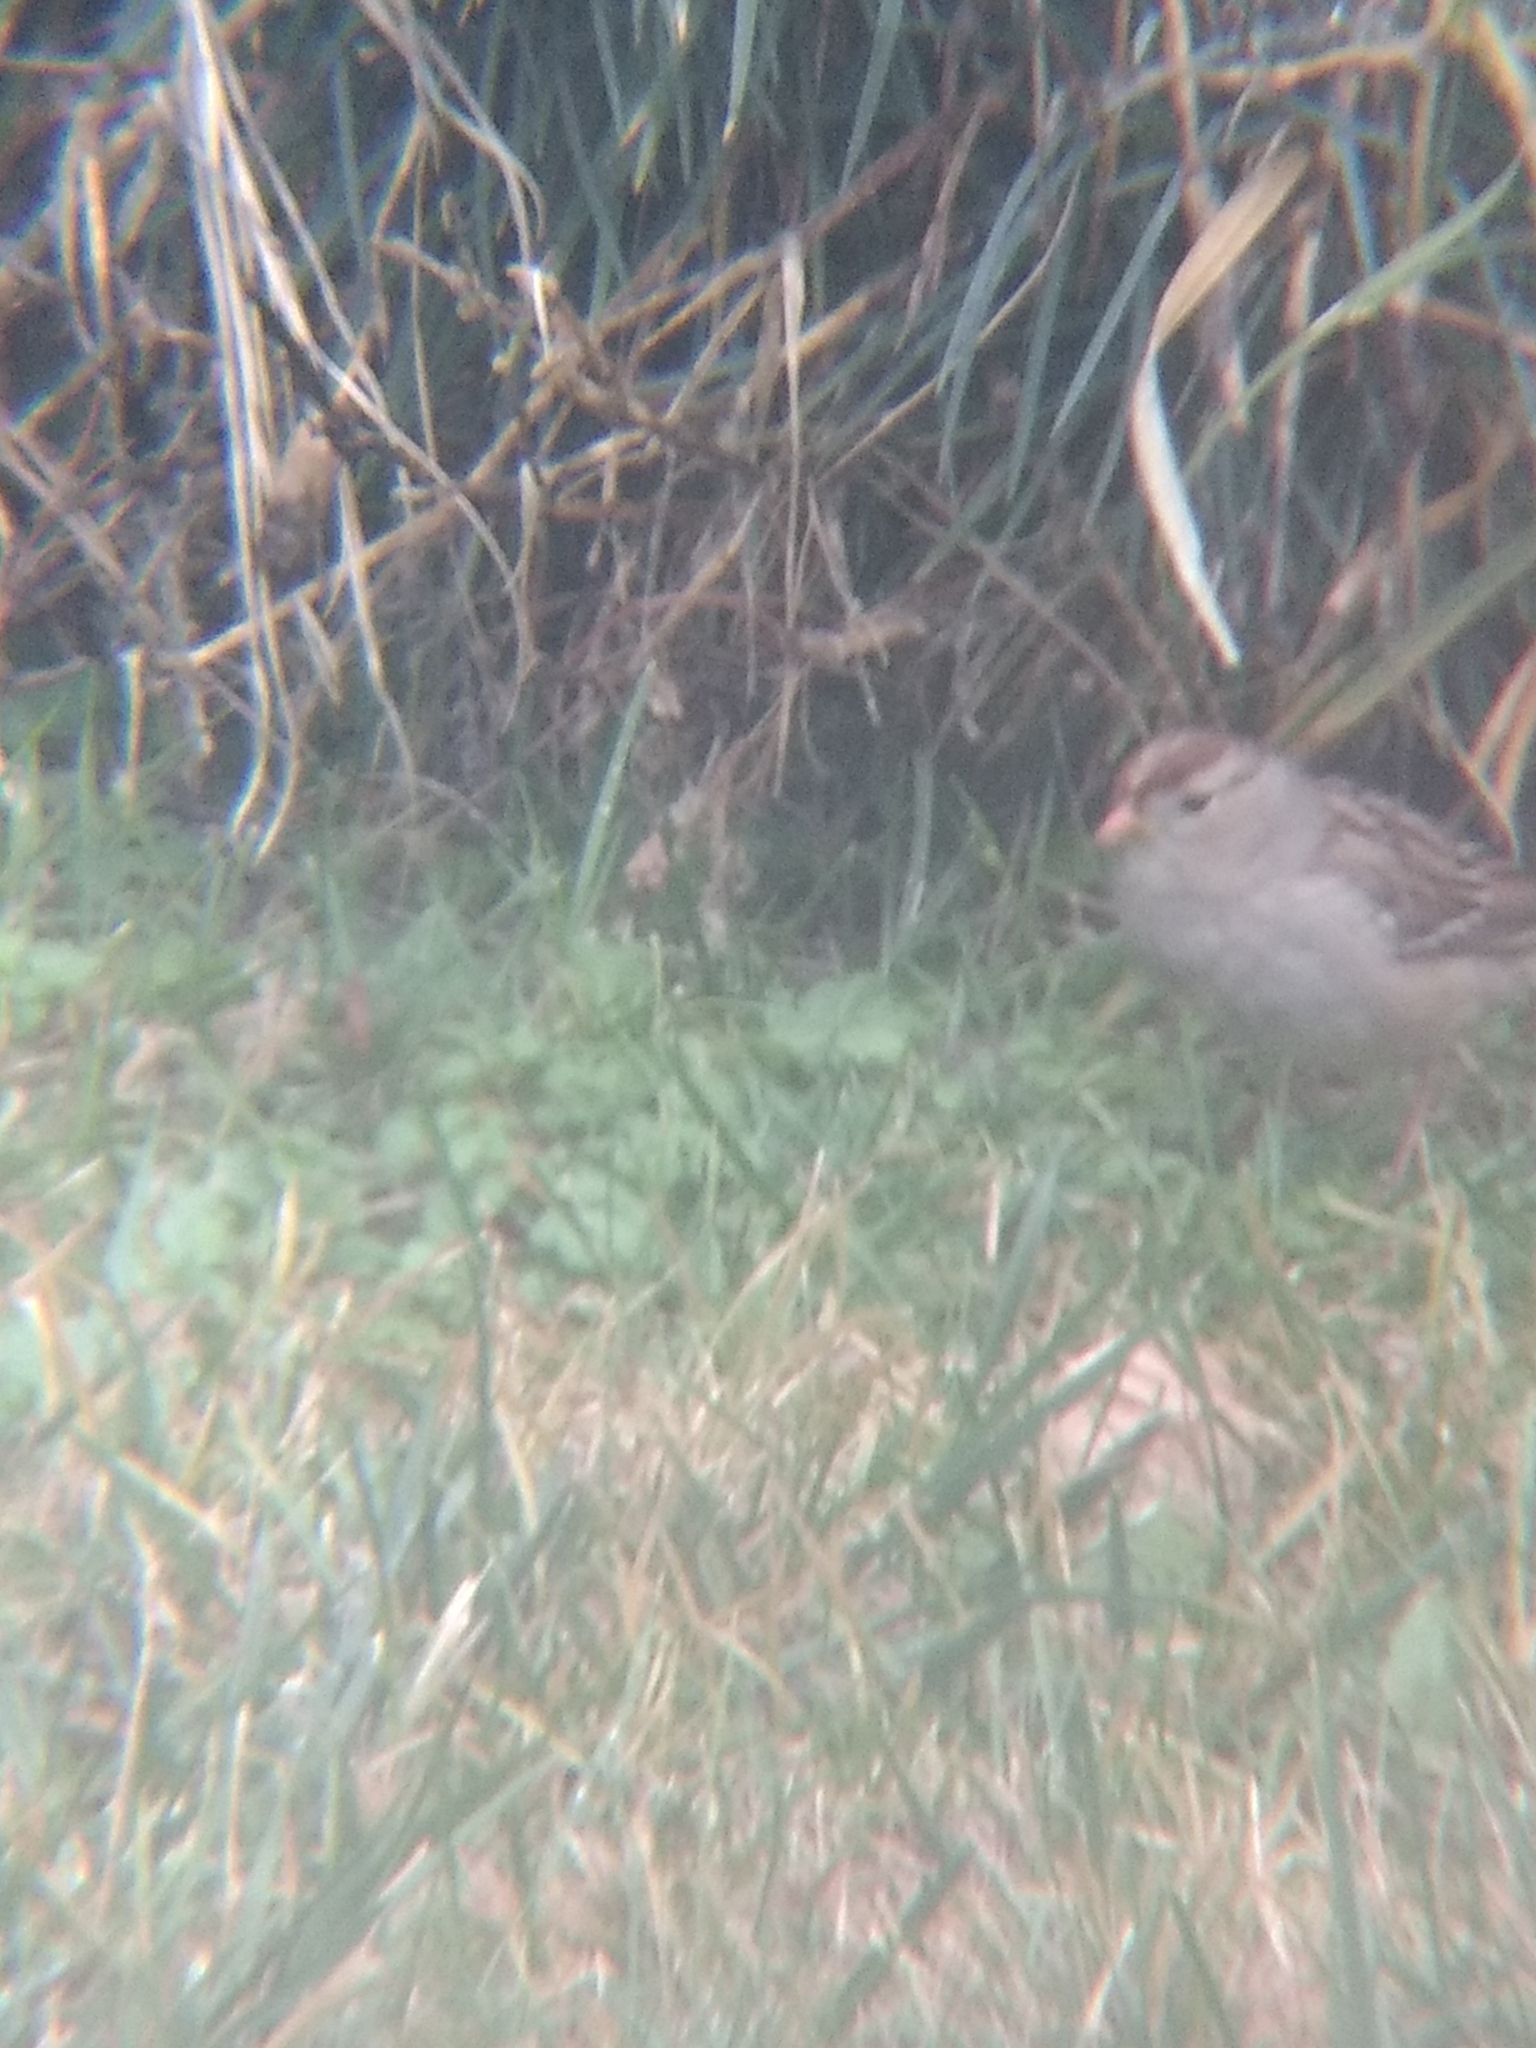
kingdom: Animalia
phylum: Chordata
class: Aves
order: Passeriformes
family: Passerellidae
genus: Zonotrichia
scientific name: Zonotrichia leucophrys
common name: White-crowned sparrow
